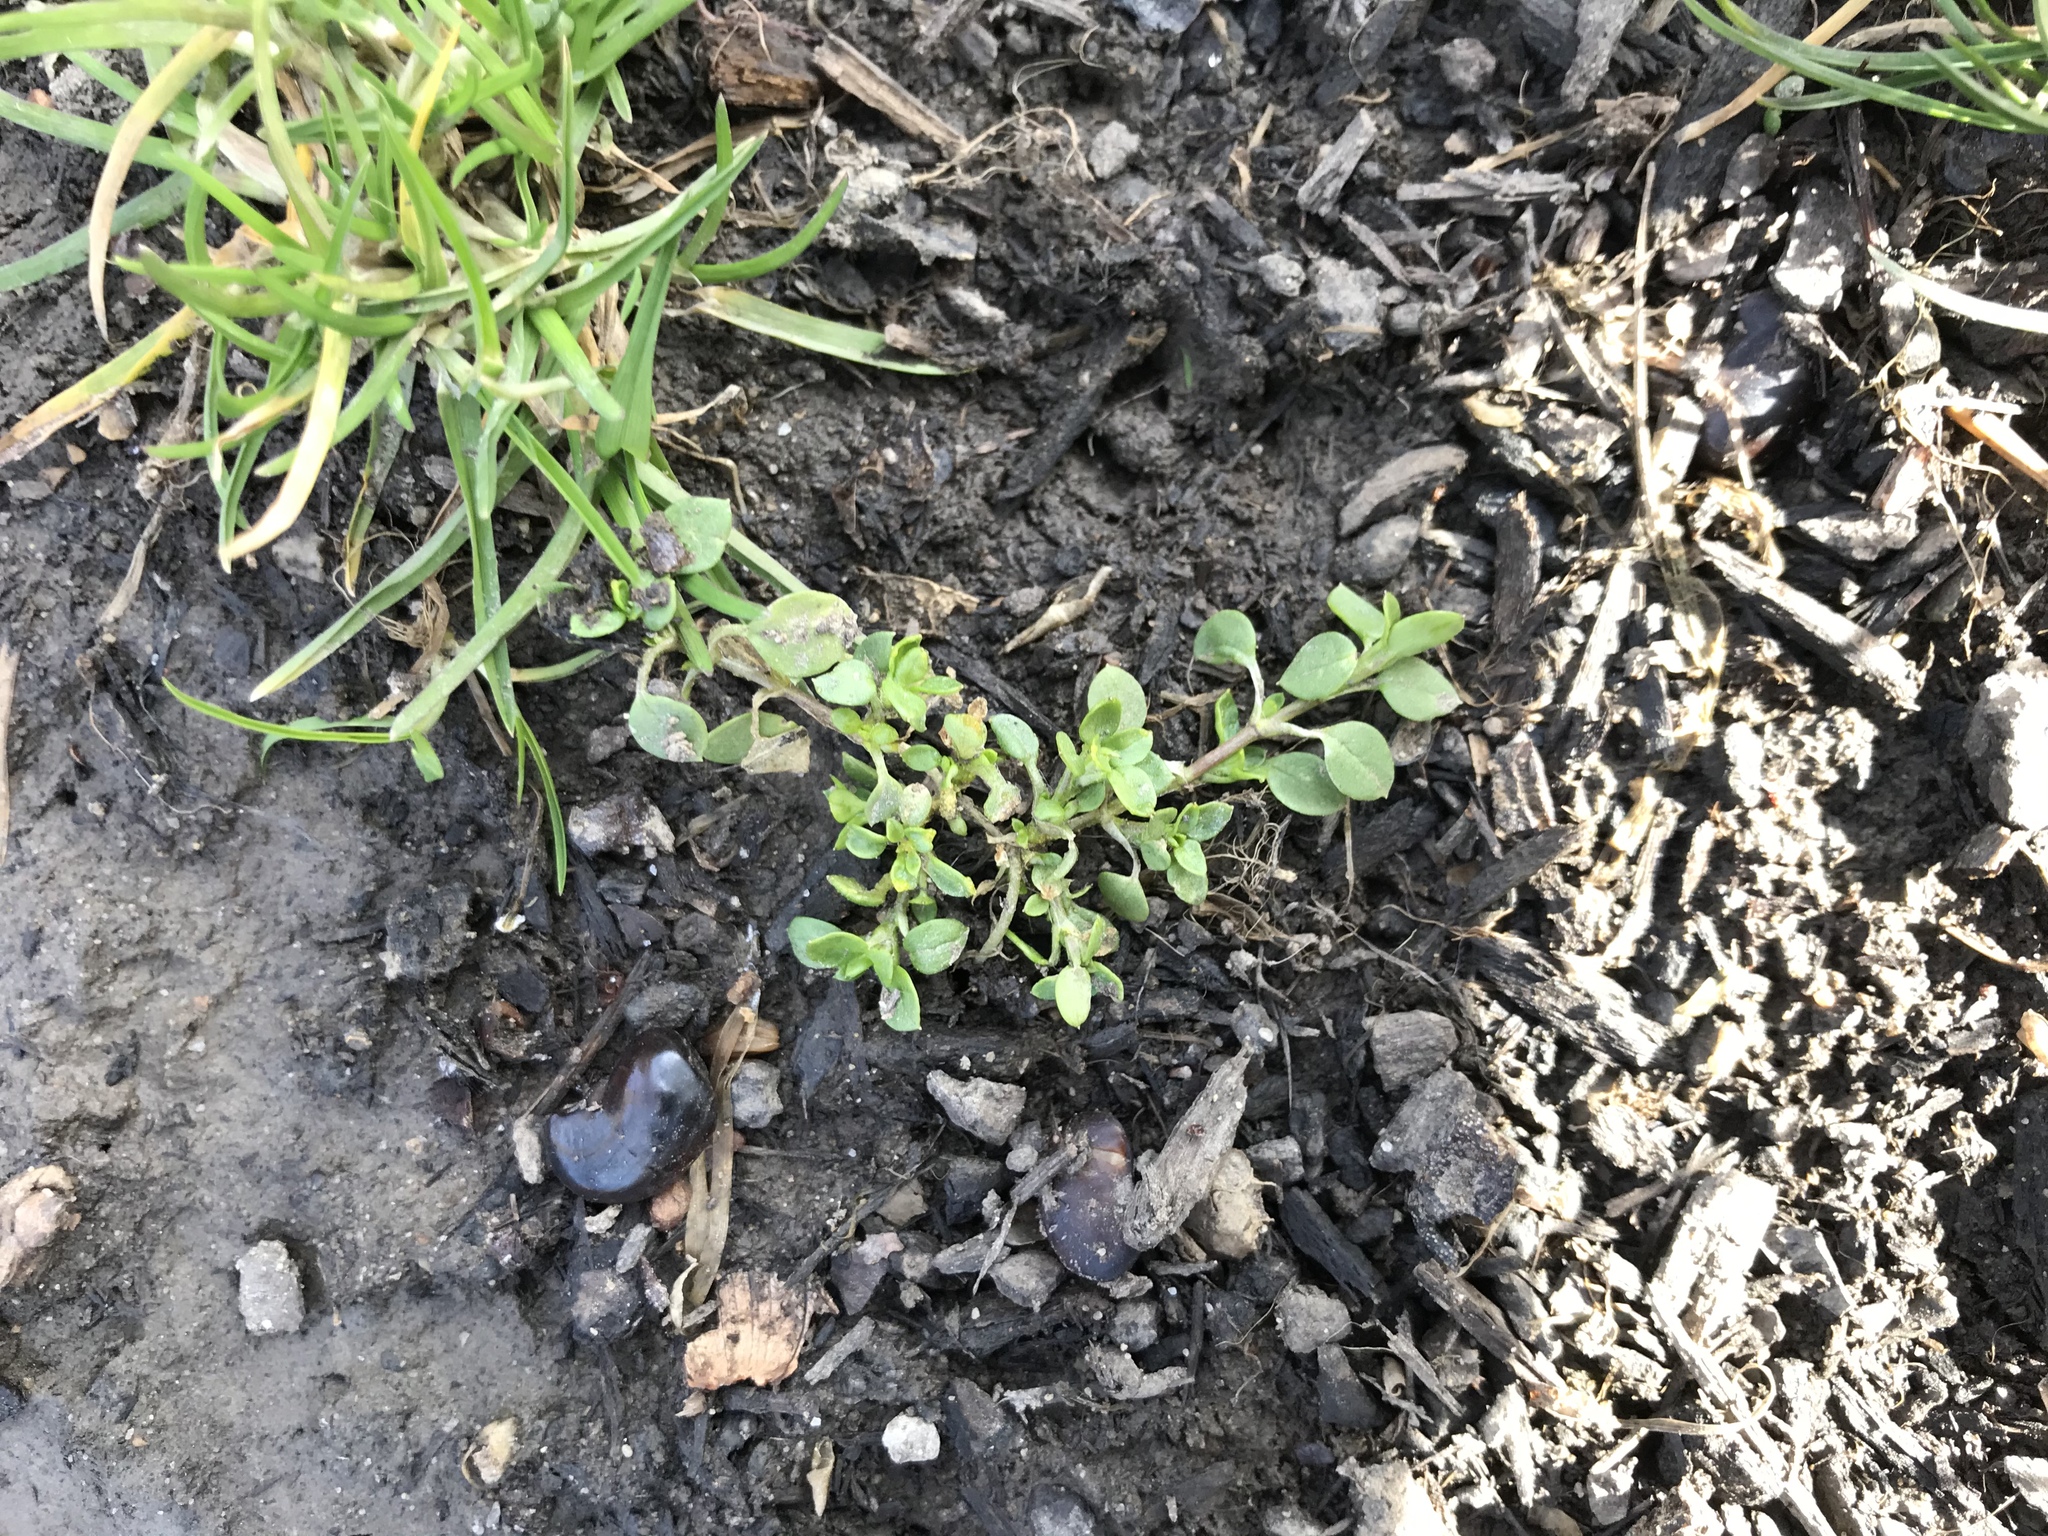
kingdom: Plantae
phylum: Tracheophyta
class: Magnoliopsida
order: Caryophyllales
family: Caryophyllaceae
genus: Stellaria
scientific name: Stellaria media
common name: Common chickweed
